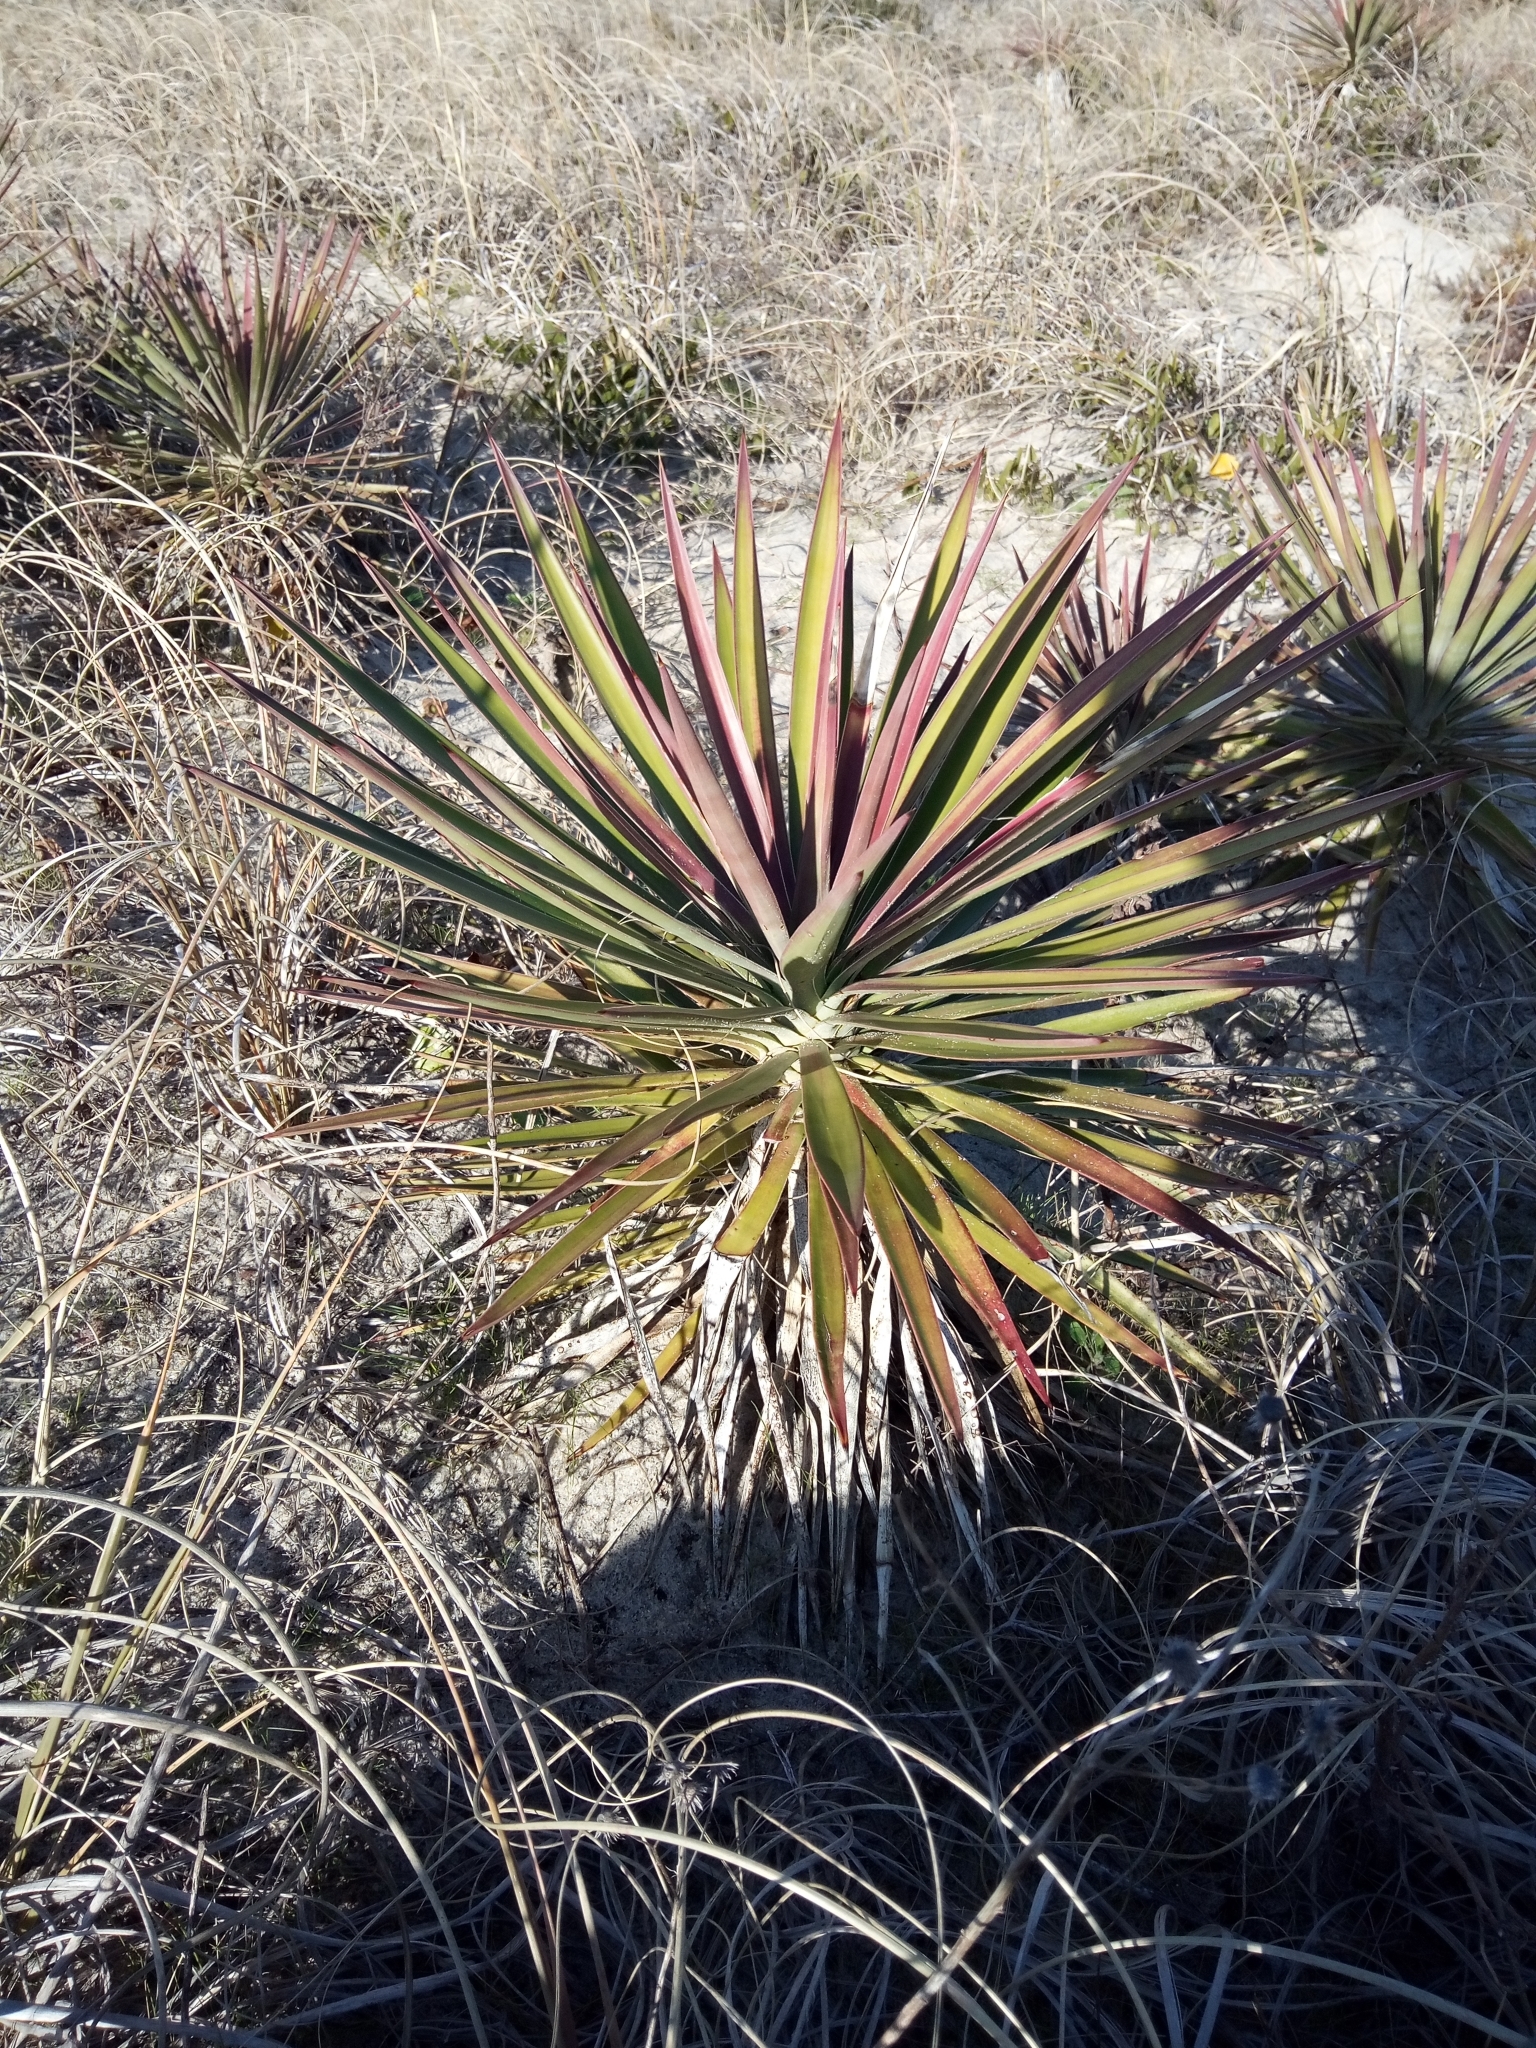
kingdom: Plantae
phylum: Tracheophyta
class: Liliopsida
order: Asparagales
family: Asparagaceae
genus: Yucca
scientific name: Yucca aloifolia
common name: Aloe yucca
